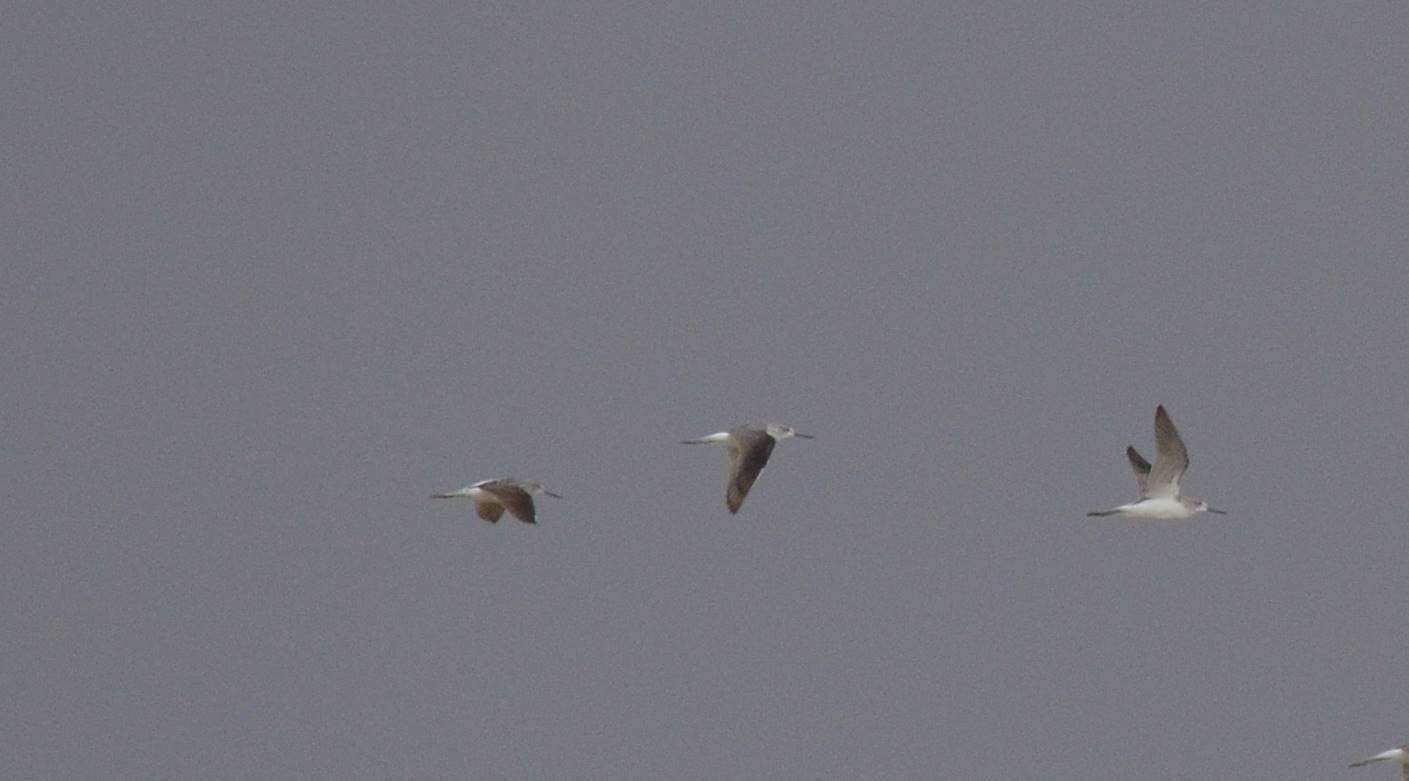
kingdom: Animalia
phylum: Chordata
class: Aves
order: Charadriiformes
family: Scolopacidae
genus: Tringa
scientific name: Tringa nebularia
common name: Common greenshank
